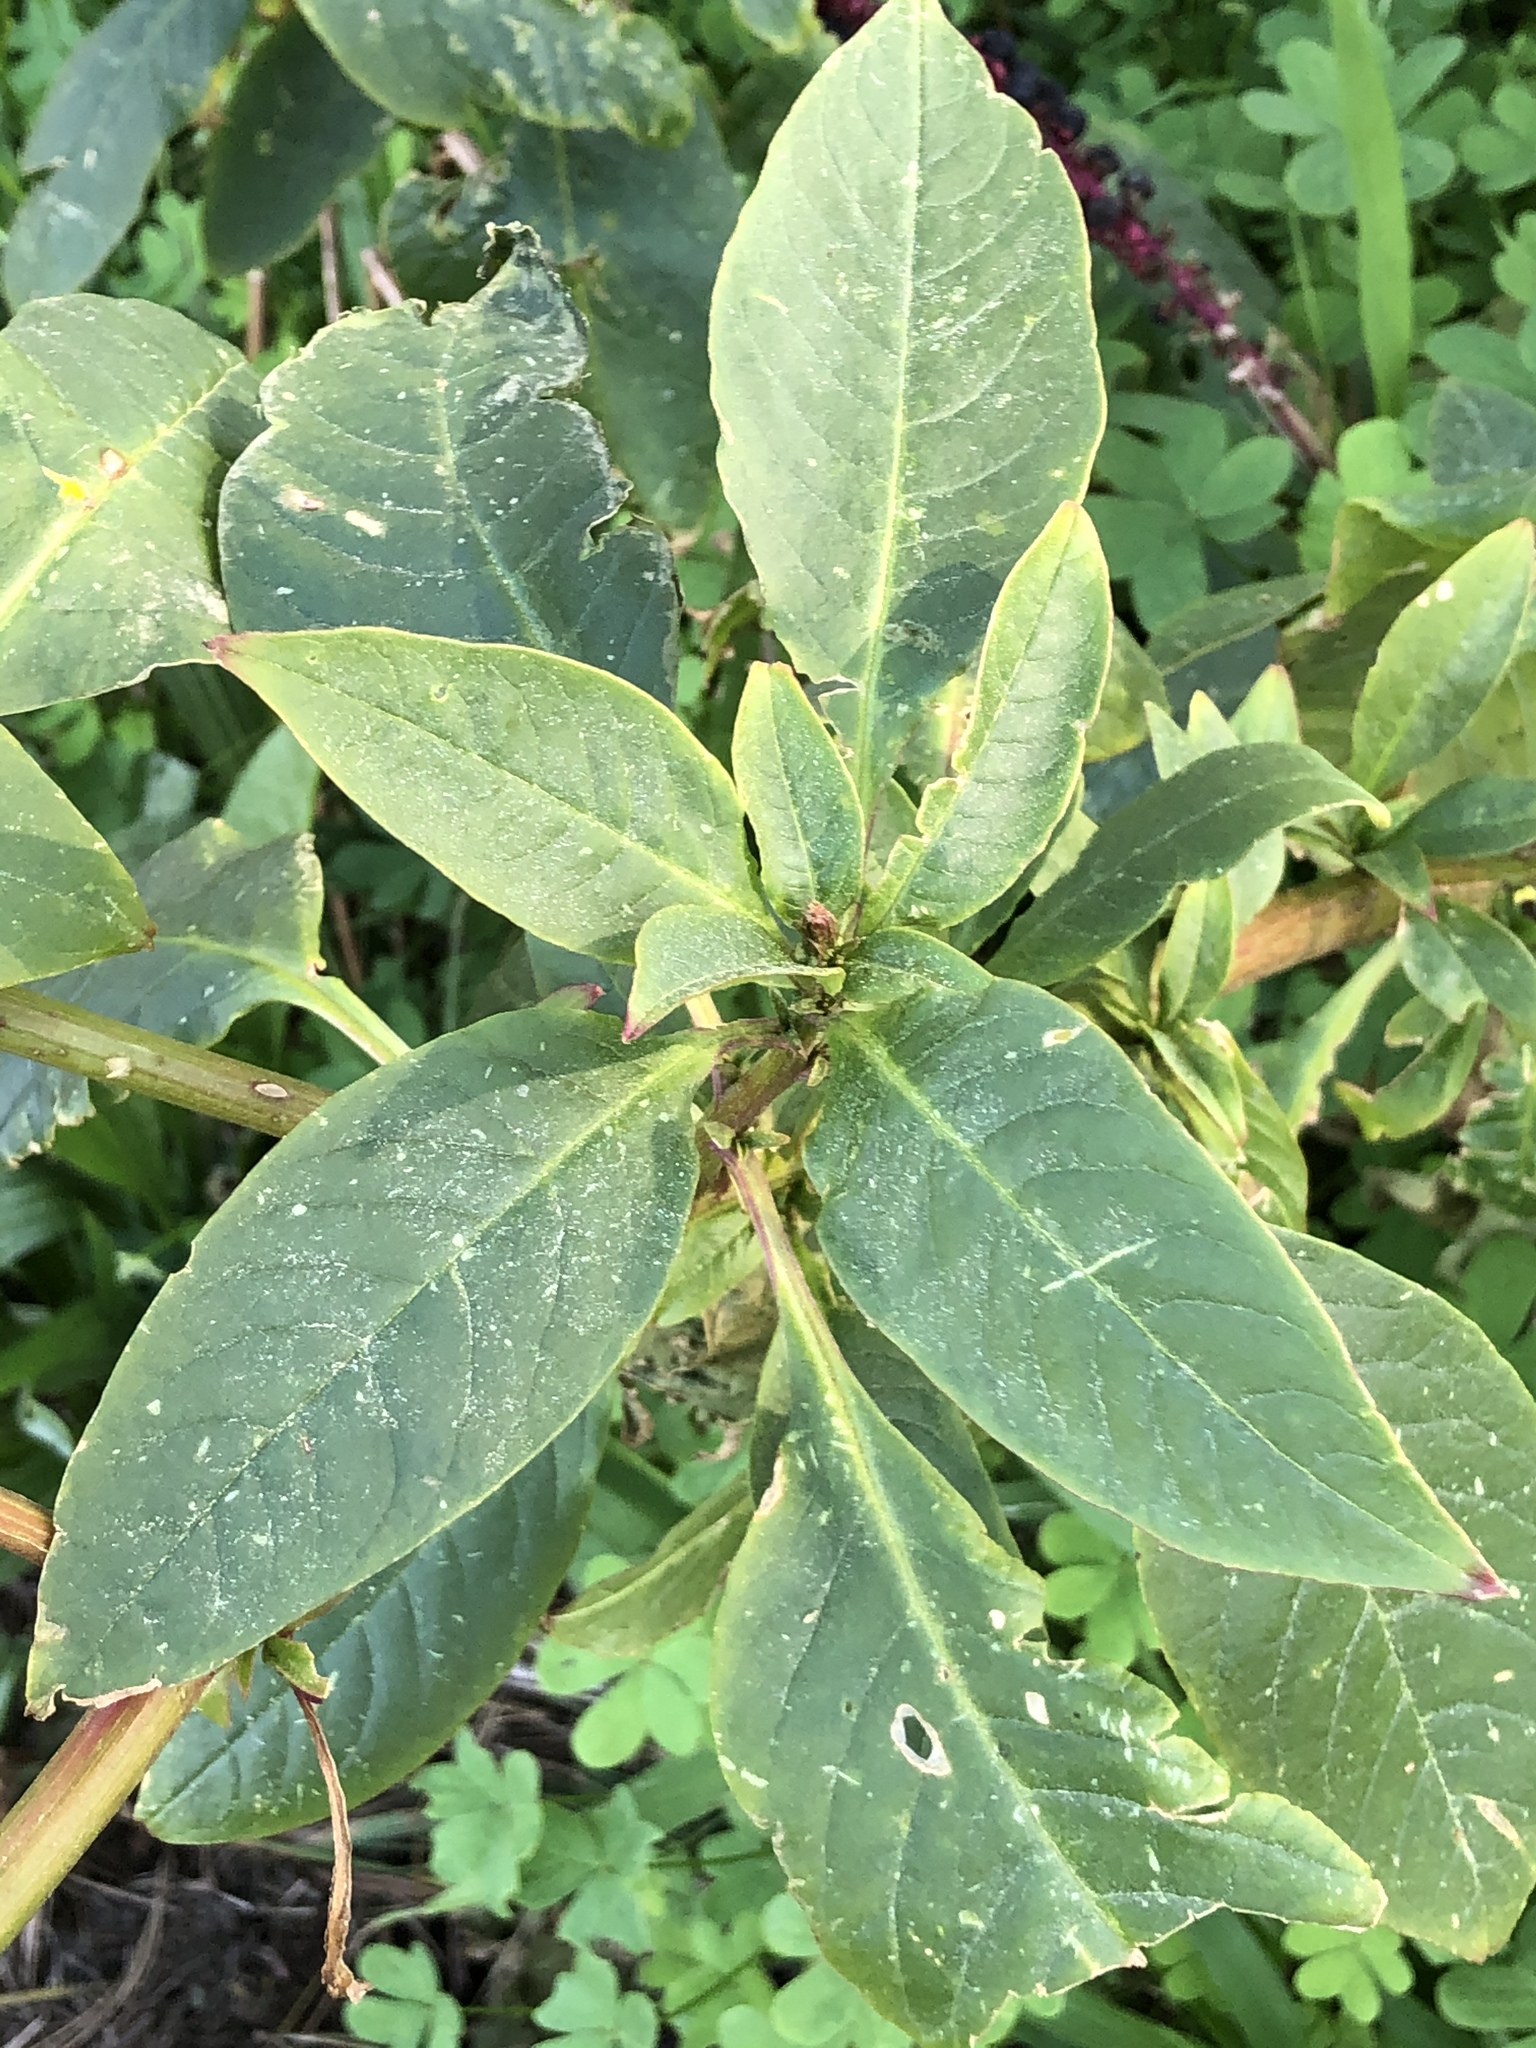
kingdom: Plantae
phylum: Tracheophyta
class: Magnoliopsida
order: Caryophyllales
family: Phytolaccaceae
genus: Phytolacca
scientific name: Phytolacca americana
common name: American pokeweed
